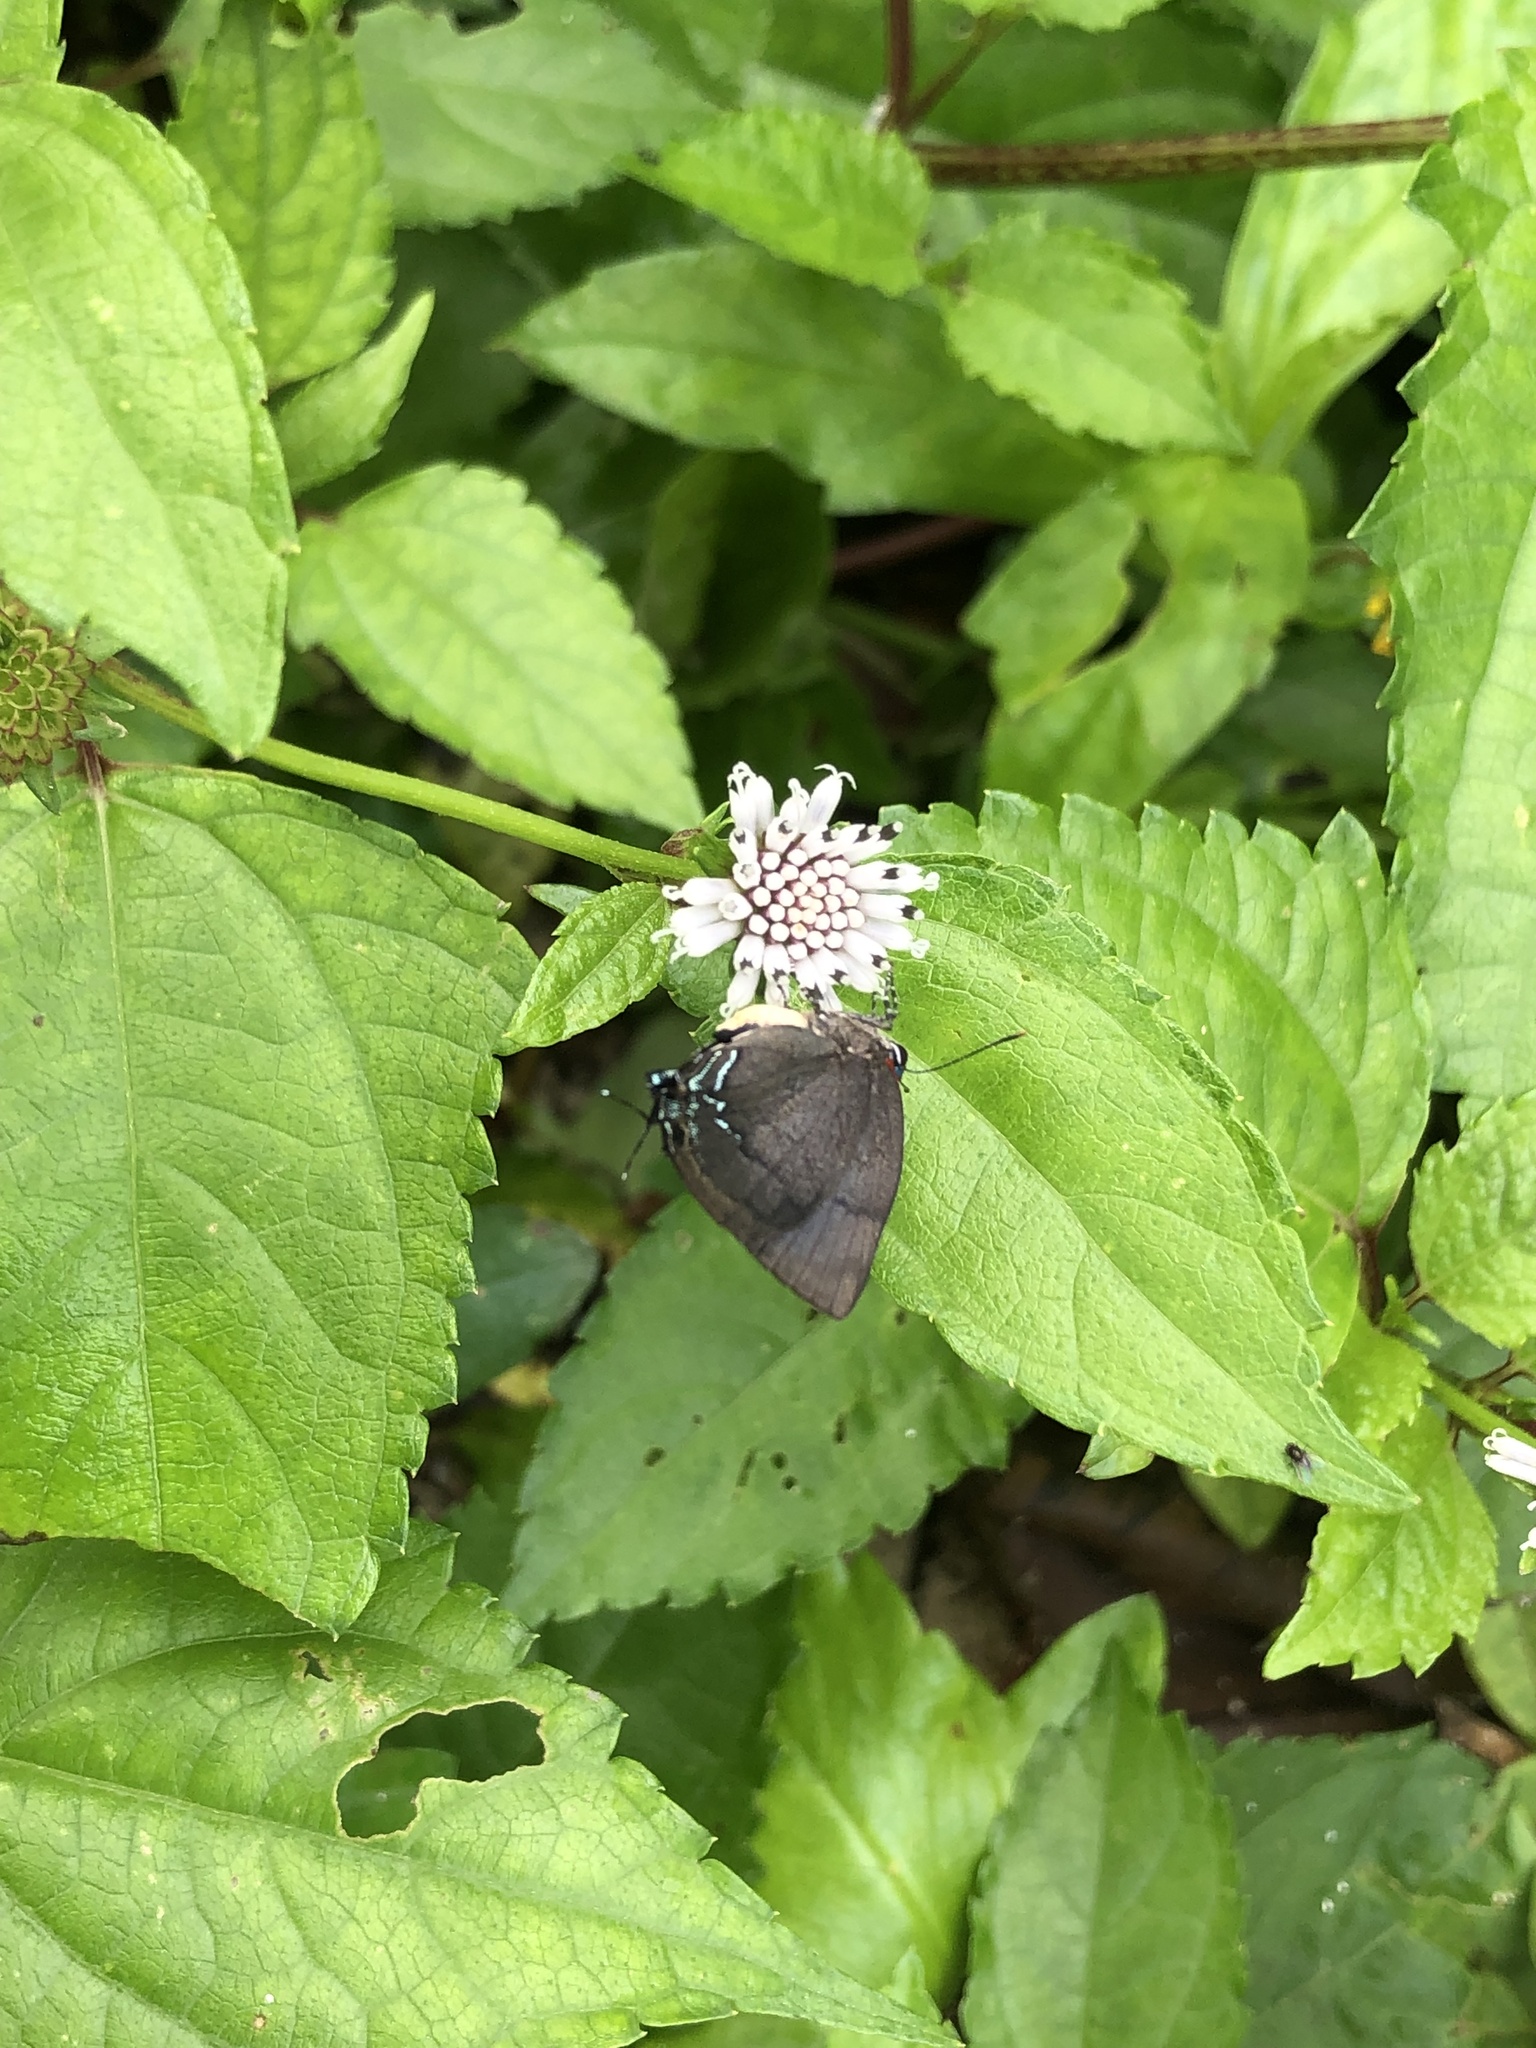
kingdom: Animalia
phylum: Arthropoda
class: Insecta
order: Lepidoptera
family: Lycaenidae
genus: Panthiades
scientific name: Panthiades bitias
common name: Bitias hairstreak
